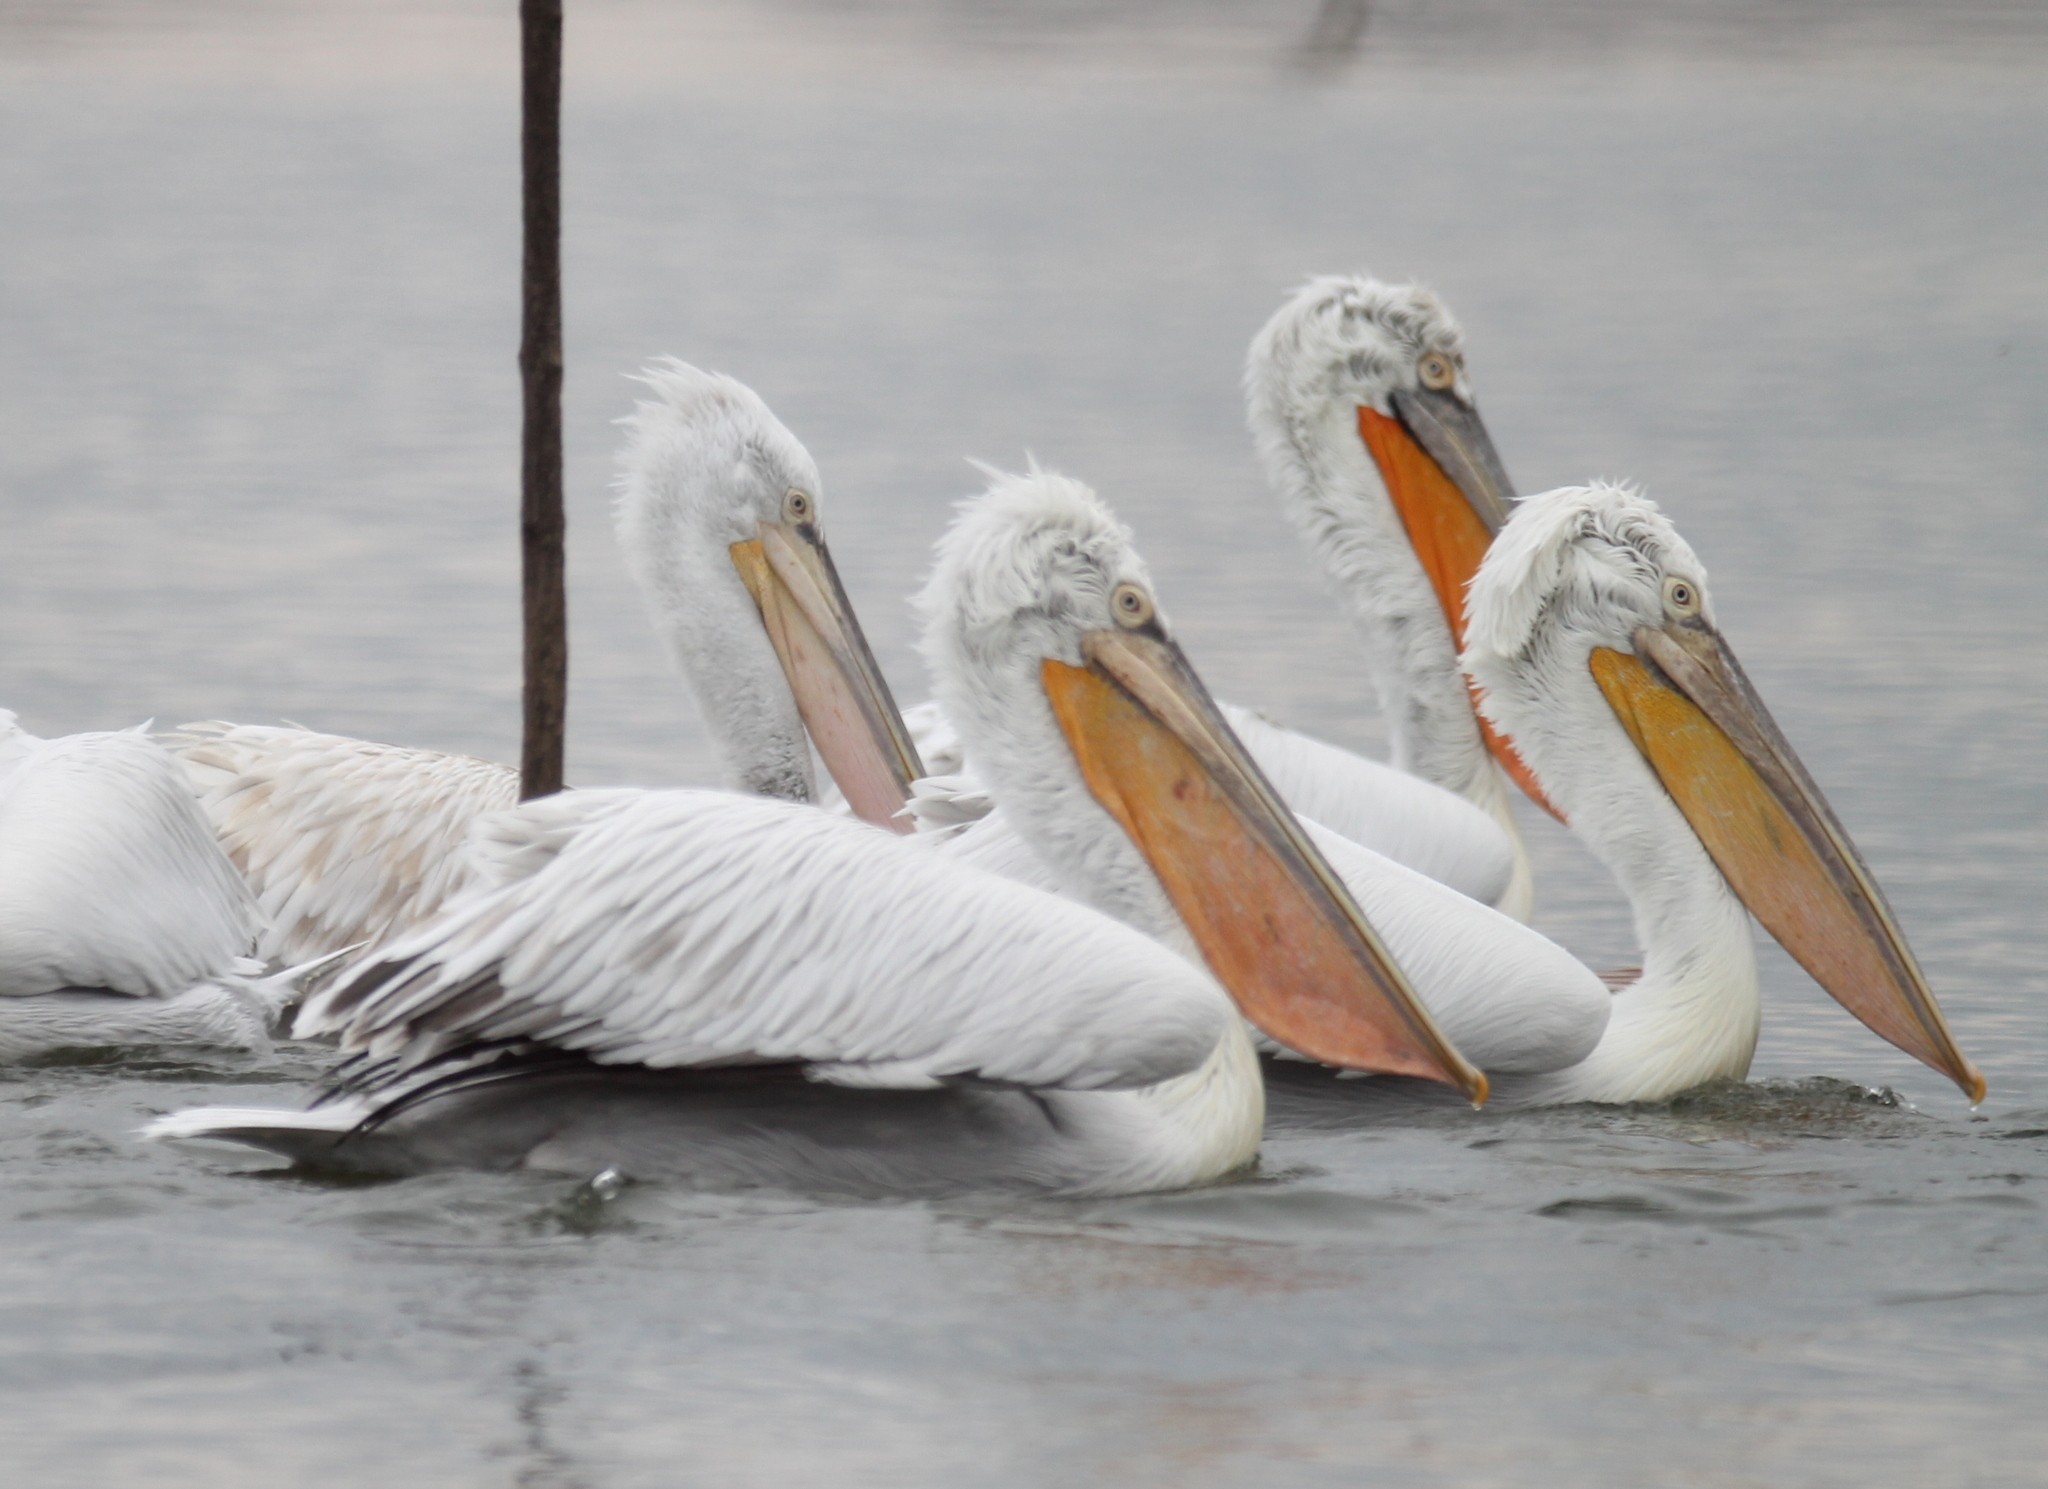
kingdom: Animalia
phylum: Chordata
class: Aves
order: Pelecaniformes
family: Pelecanidae
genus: Pelecanus
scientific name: Pelecanus crispus
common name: Dalmatian pelican
